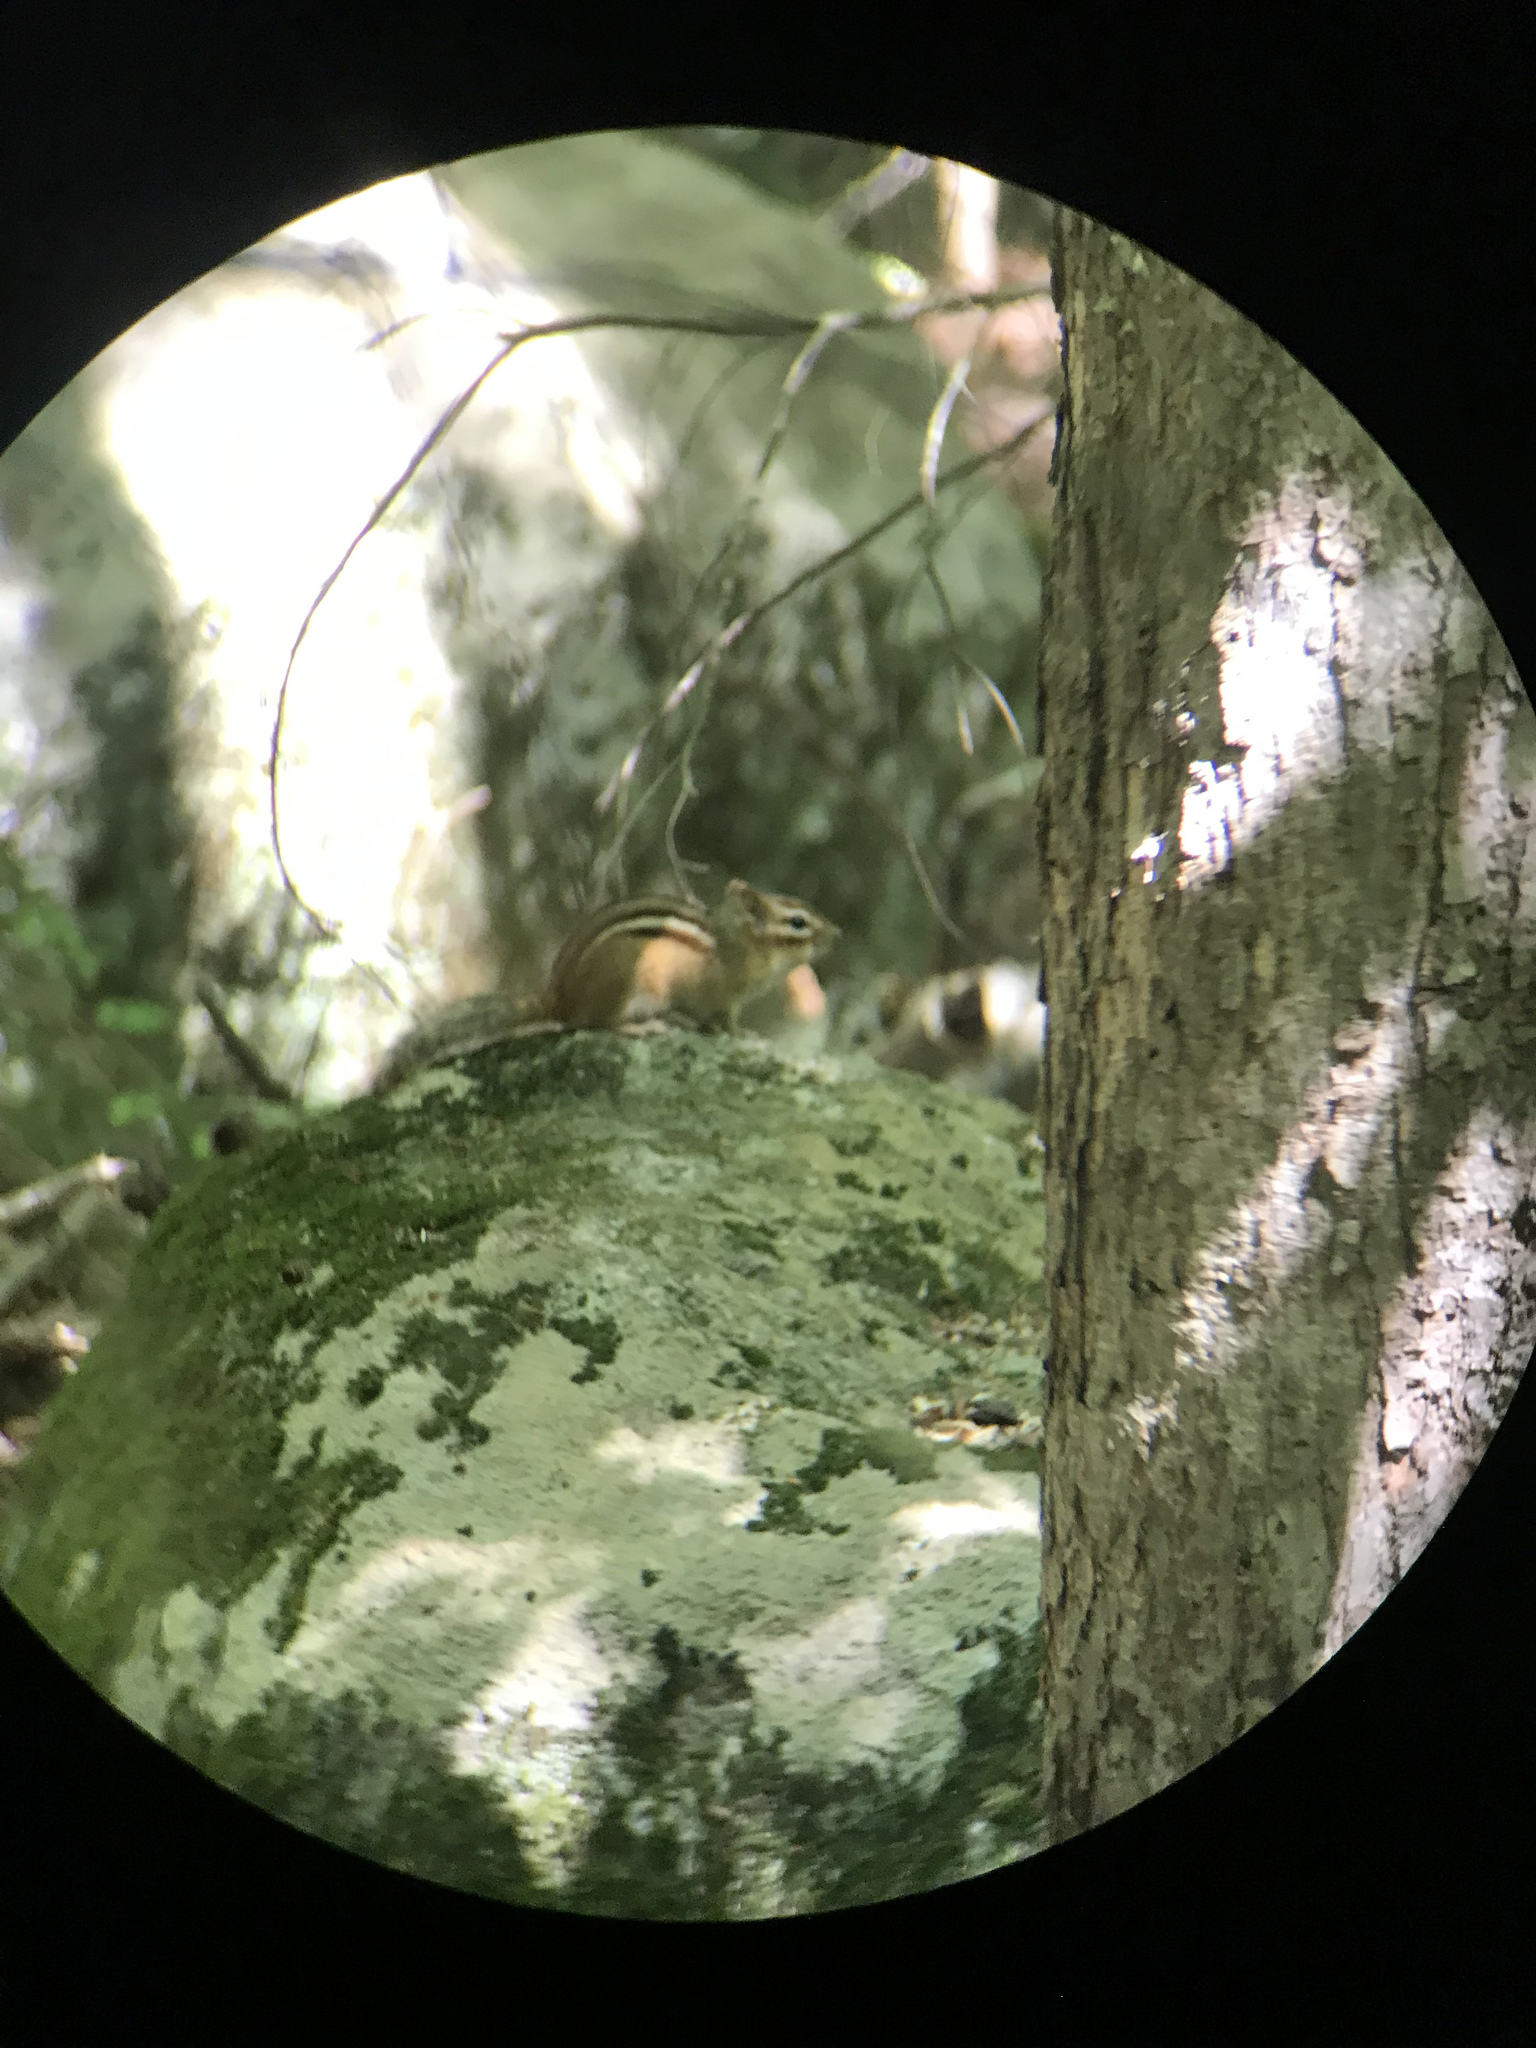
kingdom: Animalia
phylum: Chordata
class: Mammalia
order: Rodentia
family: Sciuridae
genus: Tamias
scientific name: Tamias striatus
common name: Eastern chipmunk
